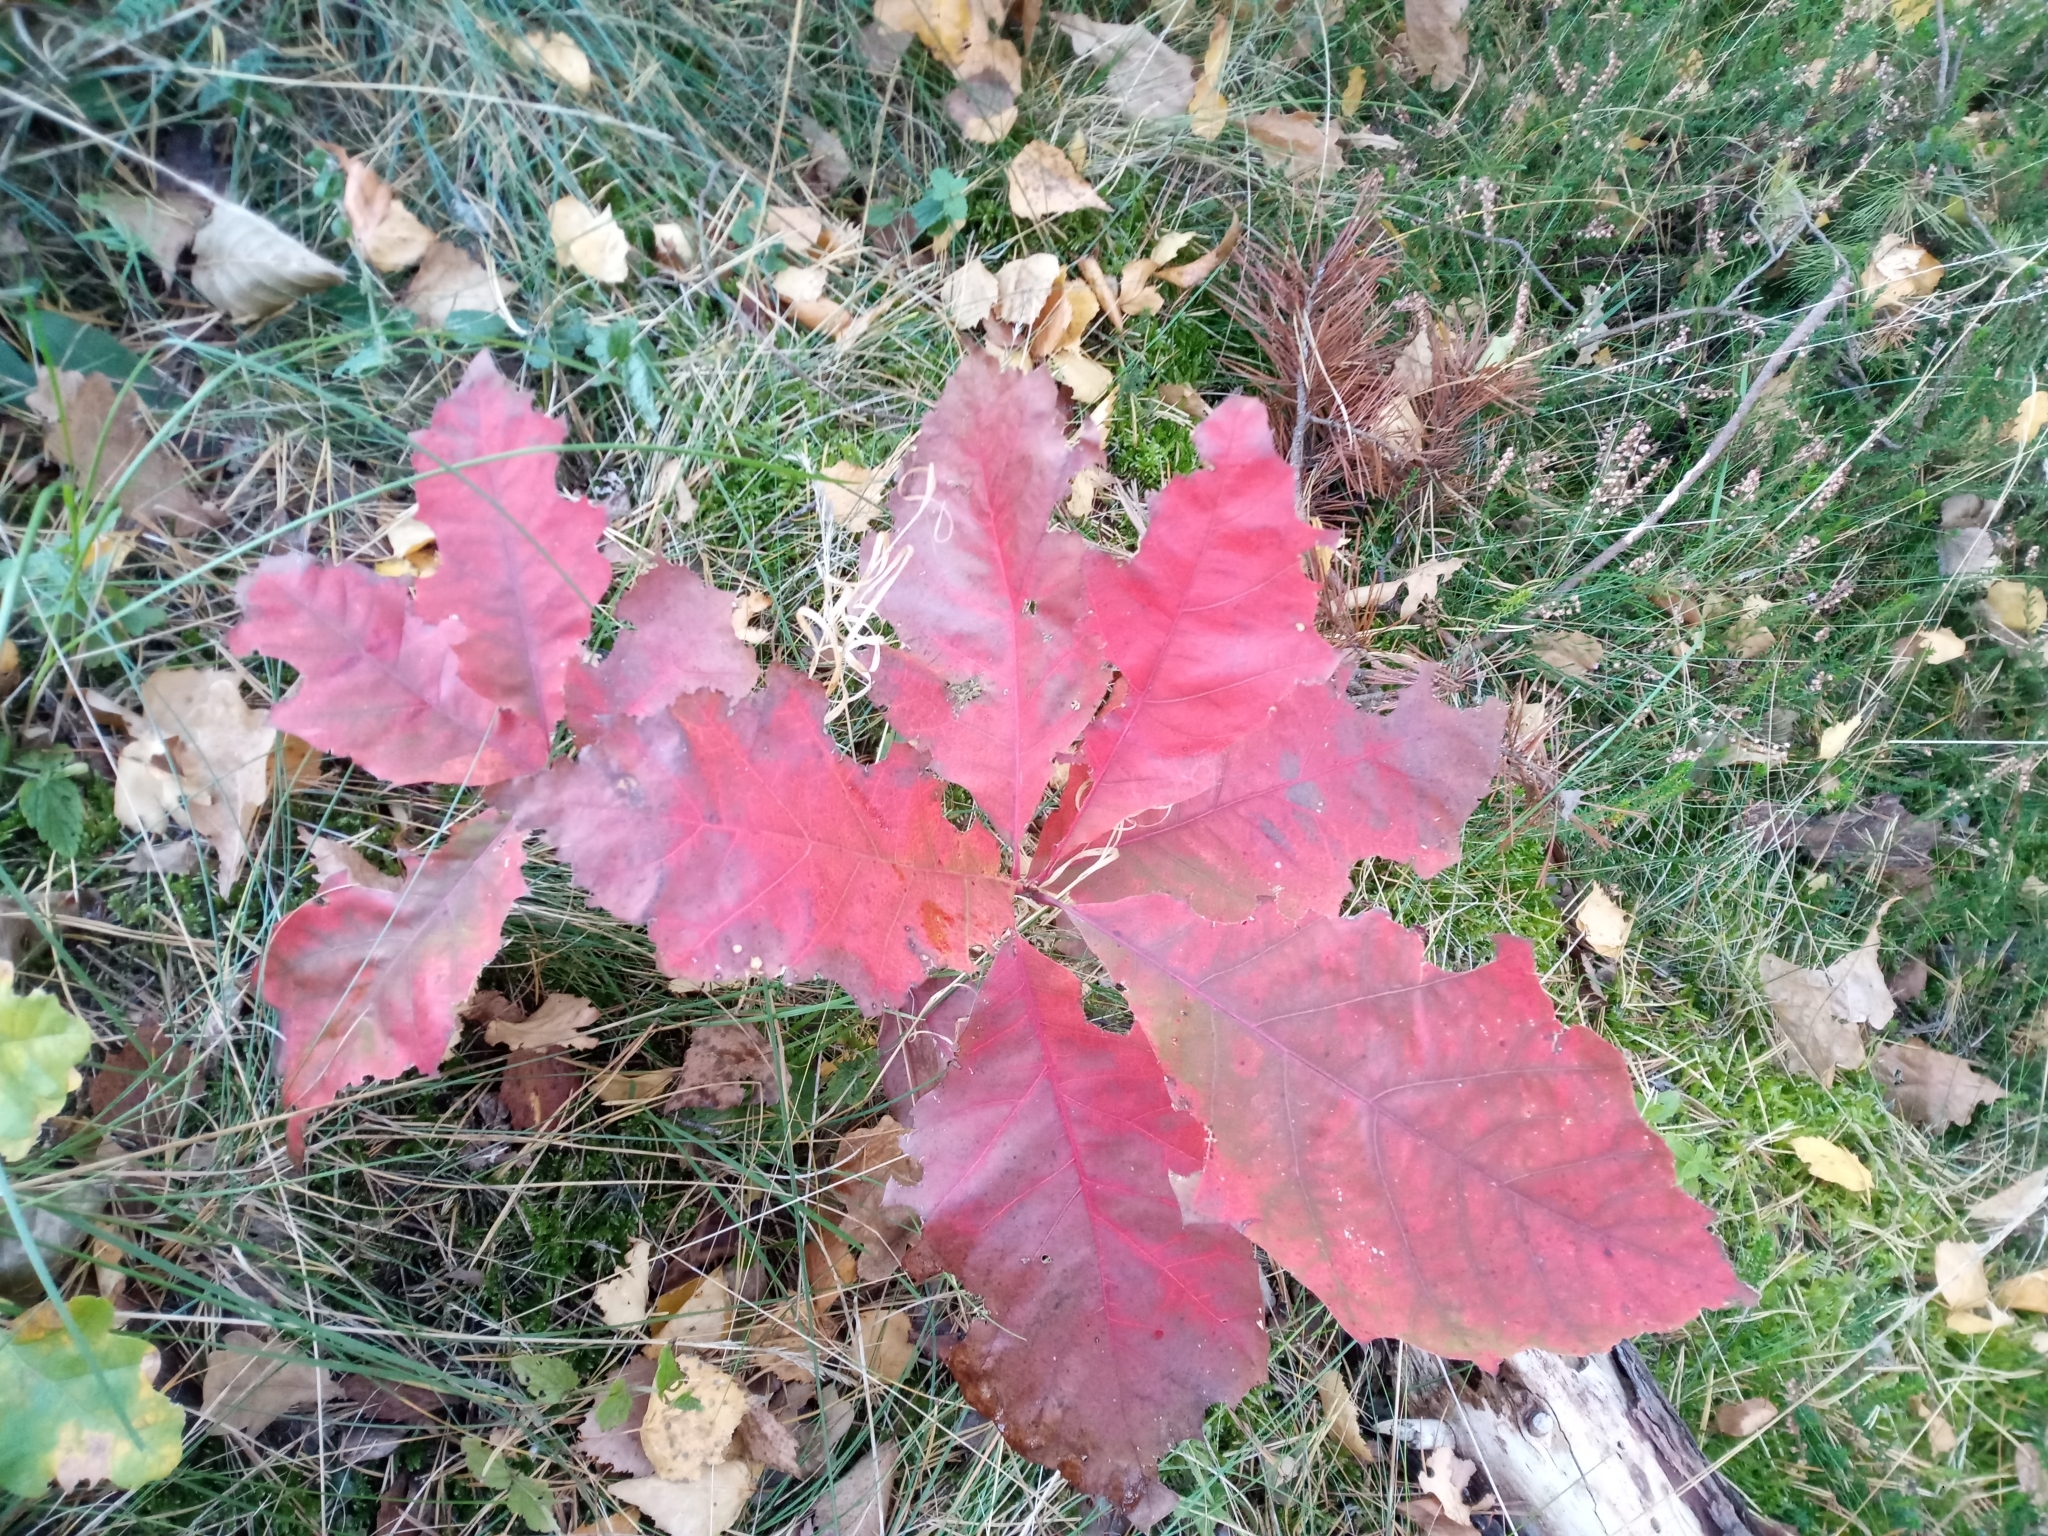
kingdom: Plantae
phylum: Tracheophyta
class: Magnoliopsida
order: Fagales
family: Fagaceae
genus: Quercus
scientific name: Quercus rubra
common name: Red oak
